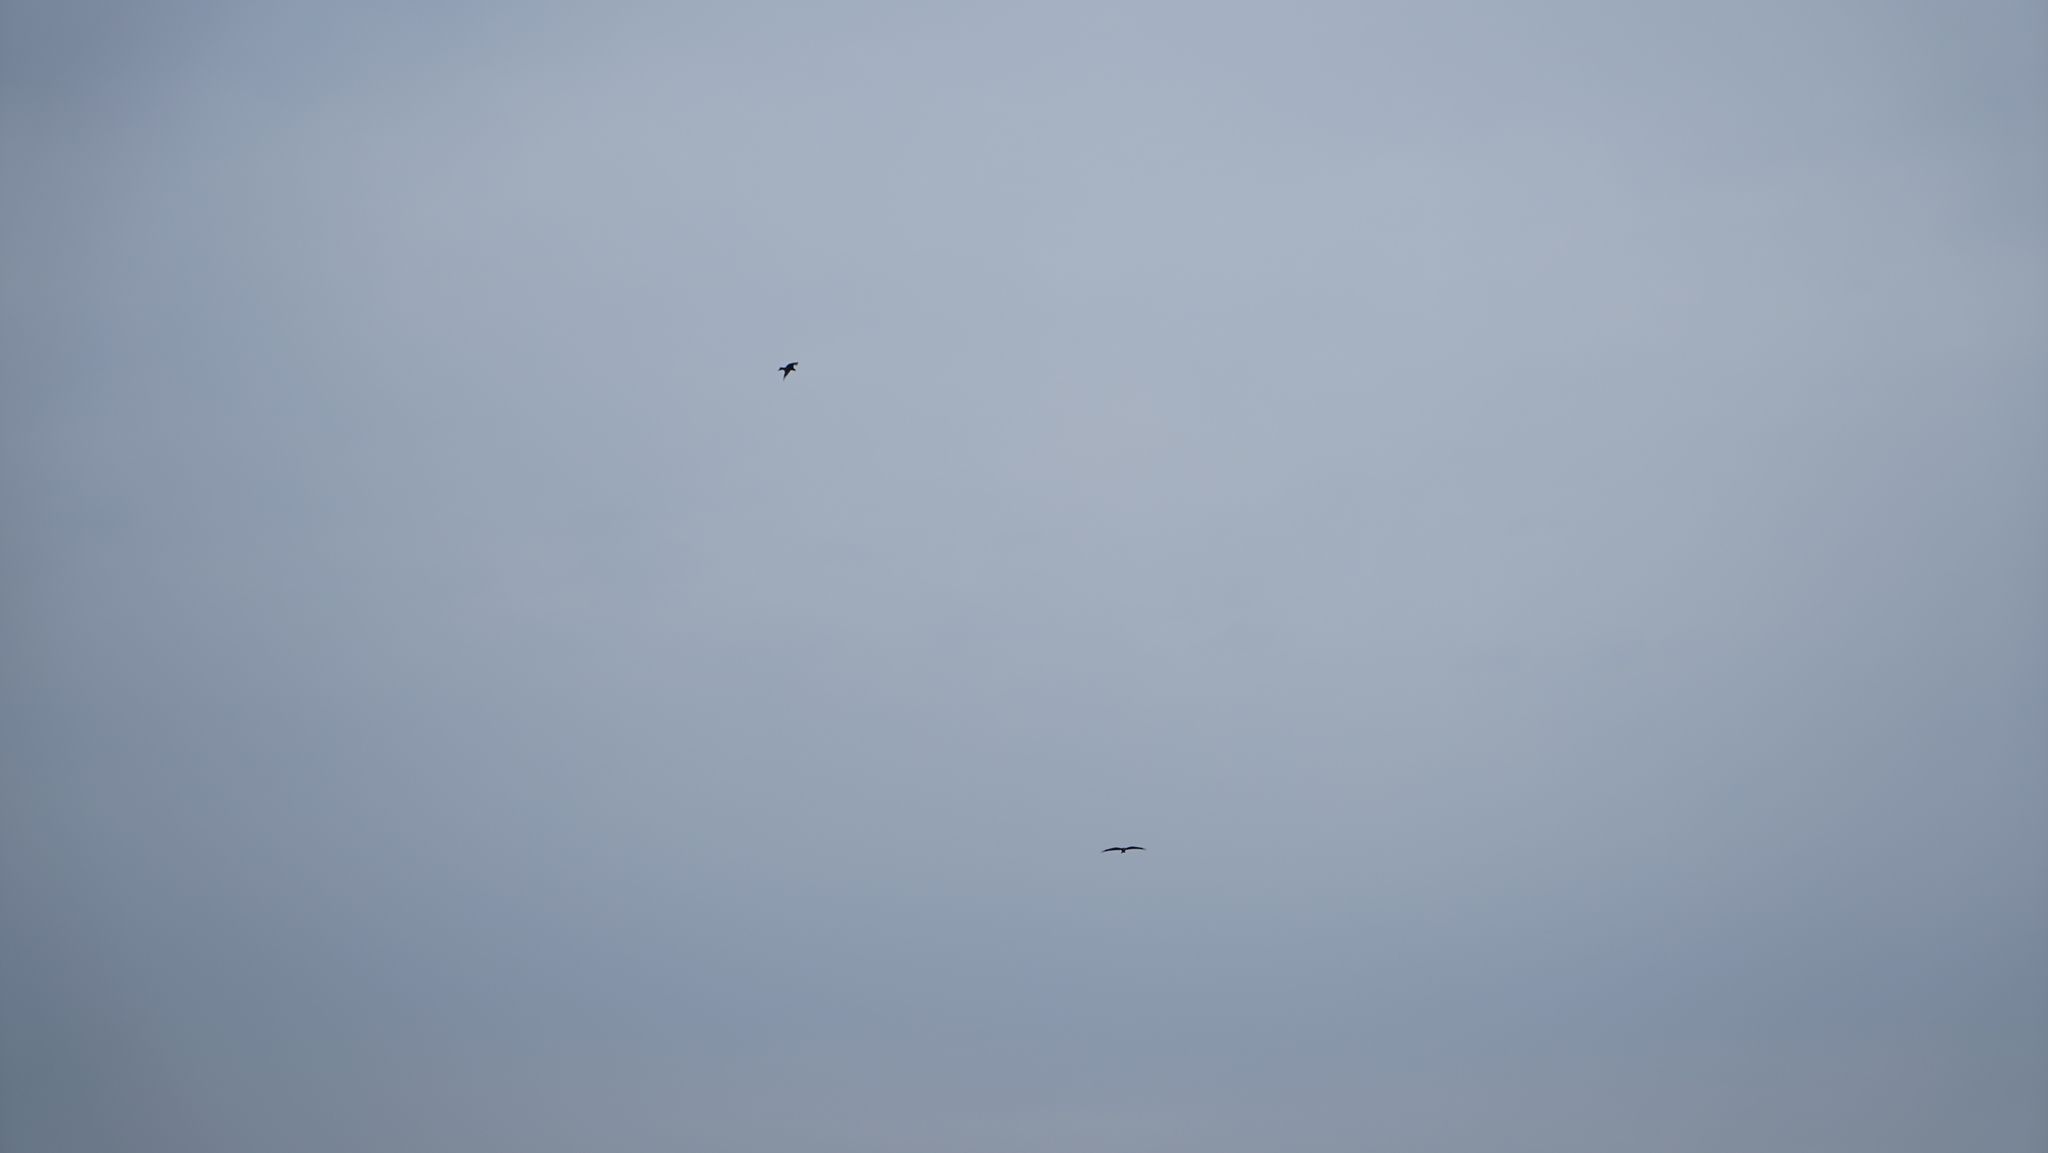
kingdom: Animalia
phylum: Chordata
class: Aves
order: Accipitriformes
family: Accipitridae
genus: Milvus
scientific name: Milvus migrans
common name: Black kite
